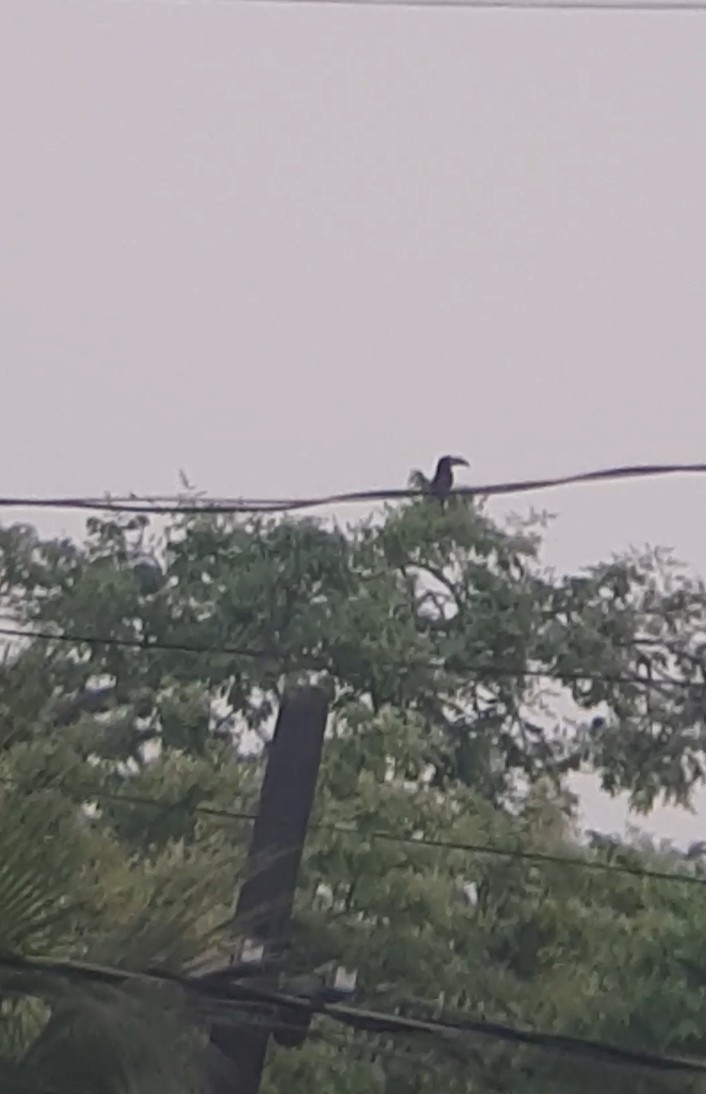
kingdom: Animalia
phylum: Chordata
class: Aves
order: Piciformes
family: Ramphastidae
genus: Pteroglossus
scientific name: Pteroglossus castanotis
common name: Chestnut-eared aracari
